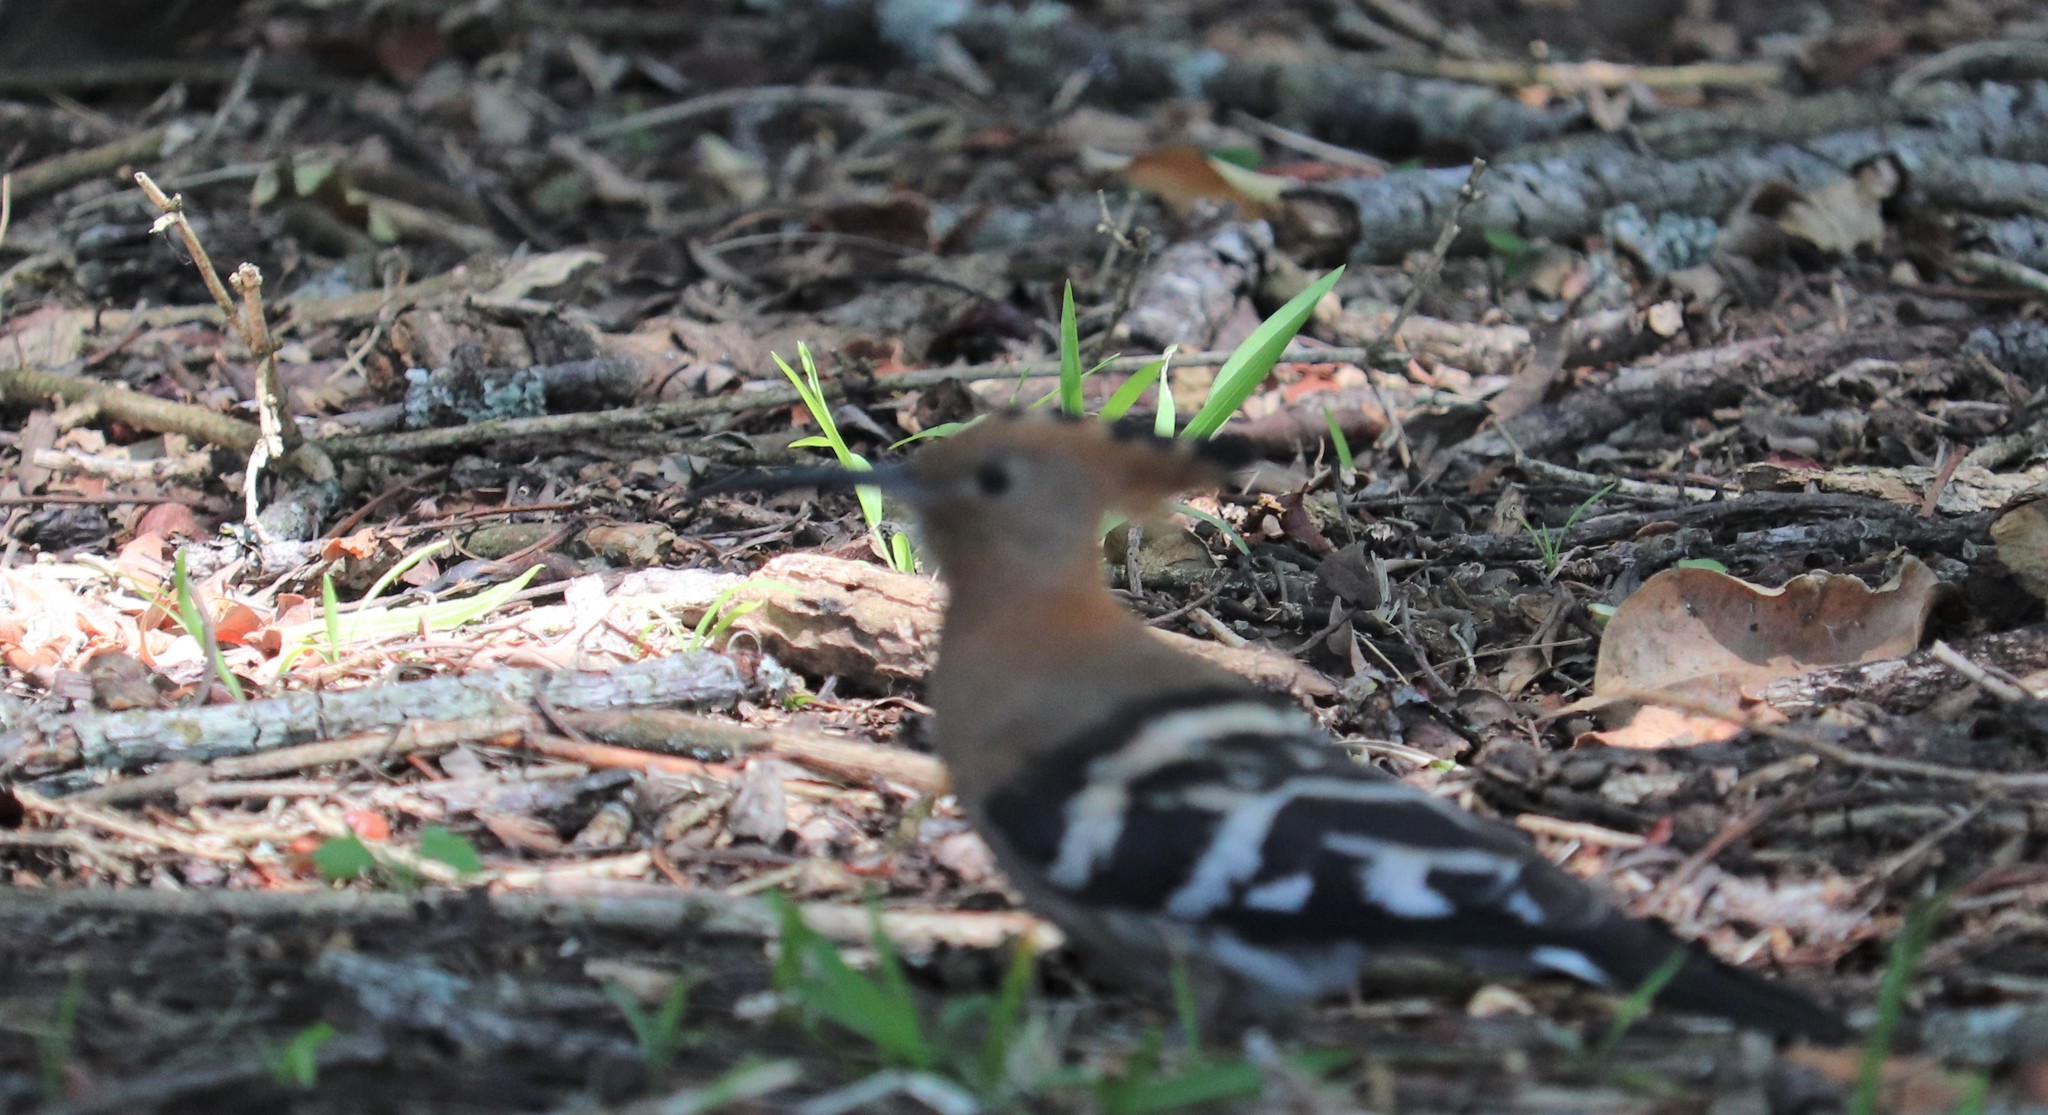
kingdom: Animalia
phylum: Chordata
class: Aves
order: Bucerotiformes
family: Upupidae
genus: Upupa
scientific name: Upupa africana
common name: African hoopoe
